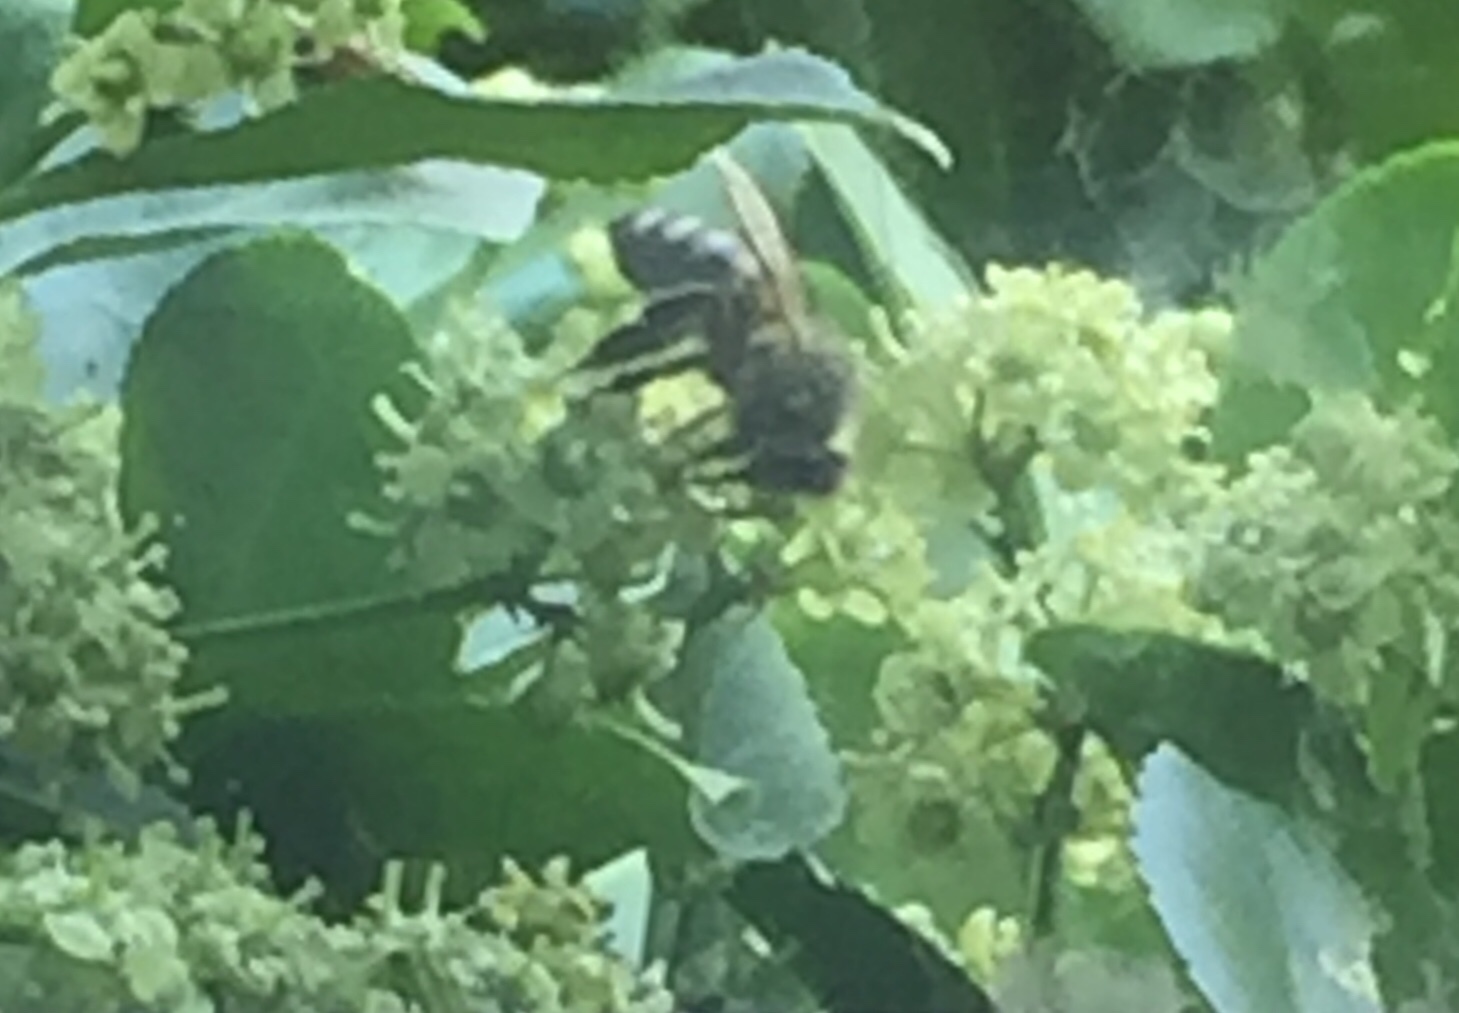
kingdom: Animalia
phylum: Arthropoda
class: Insecta
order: Hymenoptera
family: Apidae
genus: Apis
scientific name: Apis mellifera
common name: Honey bee
